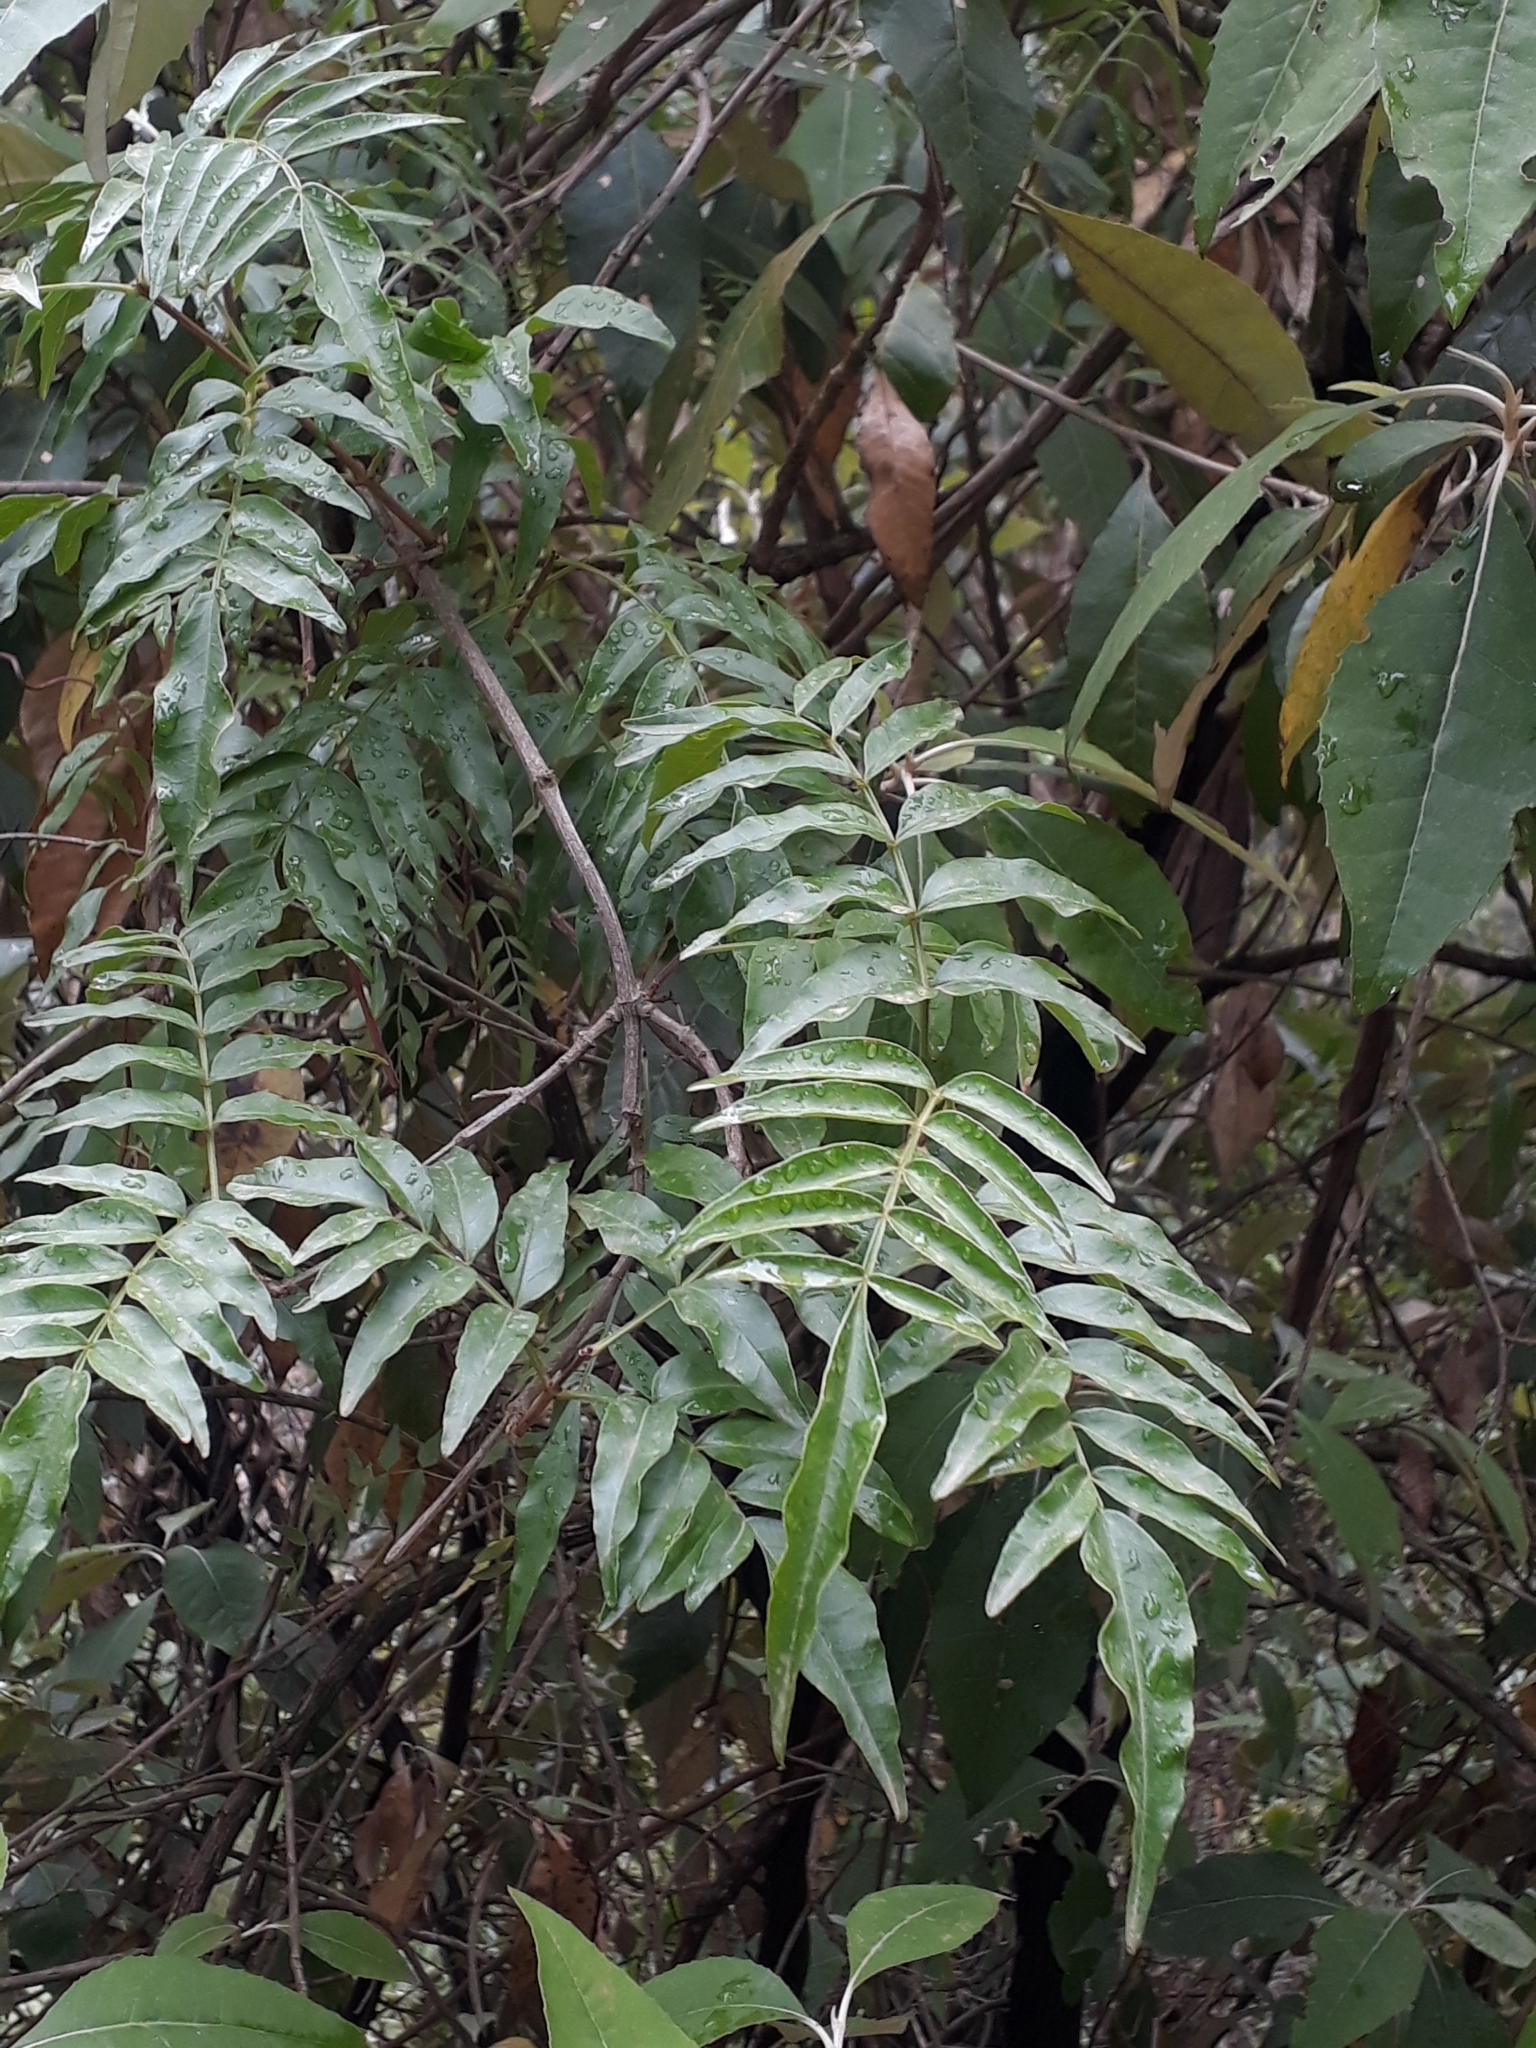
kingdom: Plantae
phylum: Tracheophyta
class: Magnoliopsida
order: Lamiales
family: Bignoniaceae
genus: Pandorea
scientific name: Pandorea pandorana
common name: Wonga-wonga-vine
